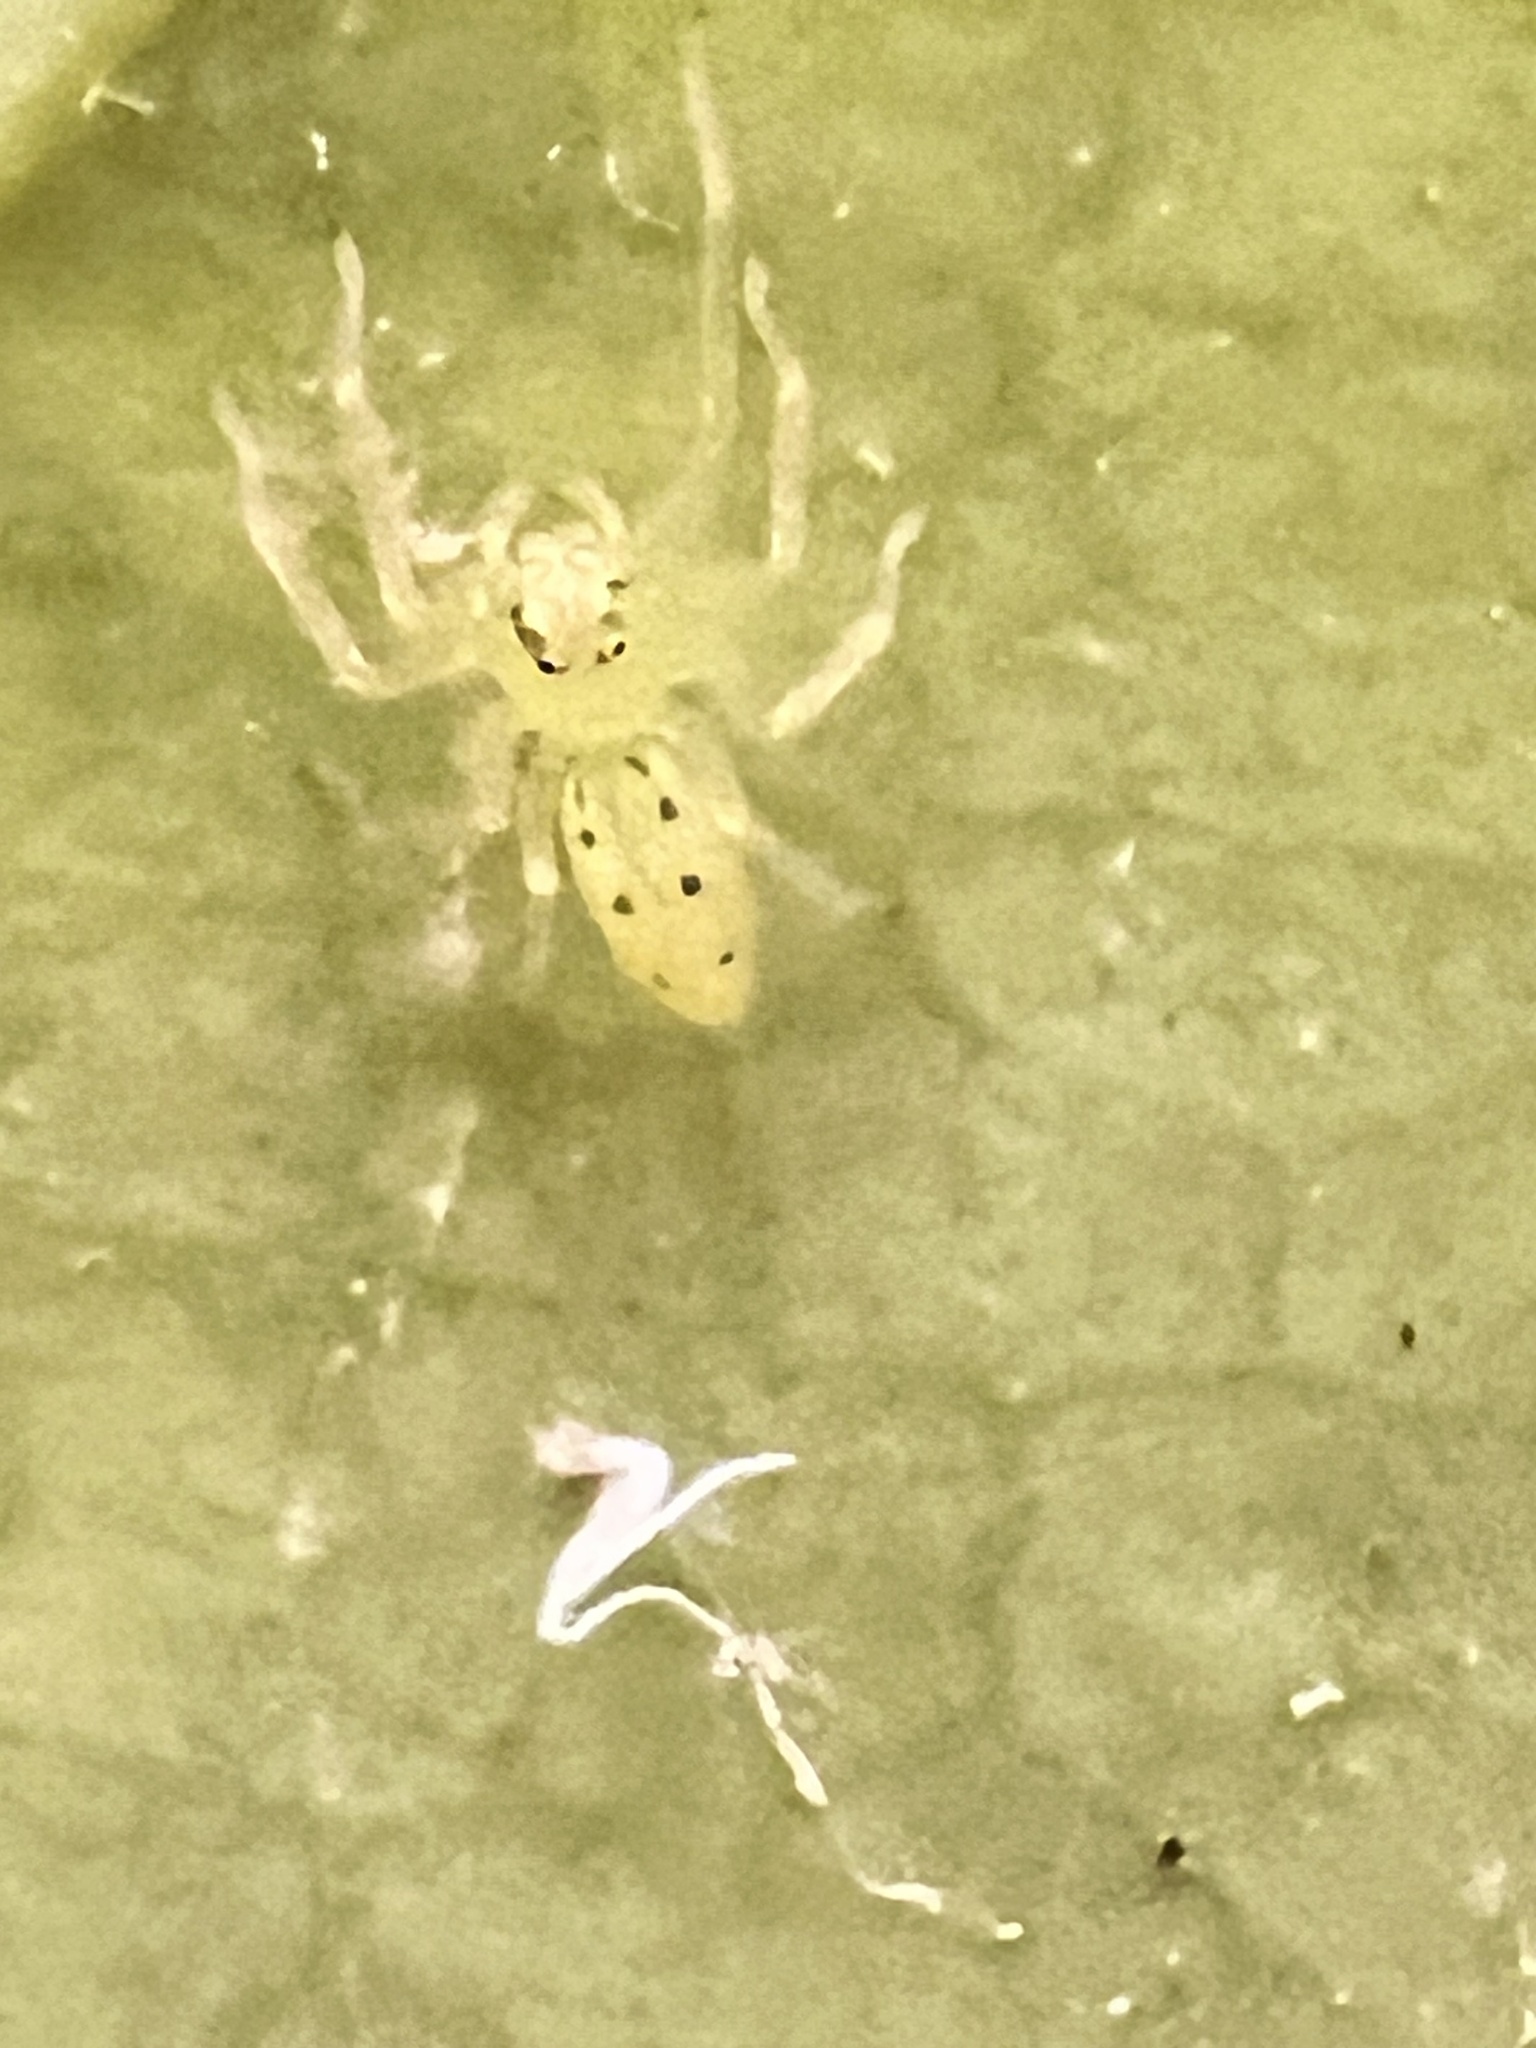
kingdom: Animalia
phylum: Arthropoda
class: Arachnida
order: Araneae
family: Salticidae
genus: Lyssomanes
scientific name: Lyssomanes viridis
